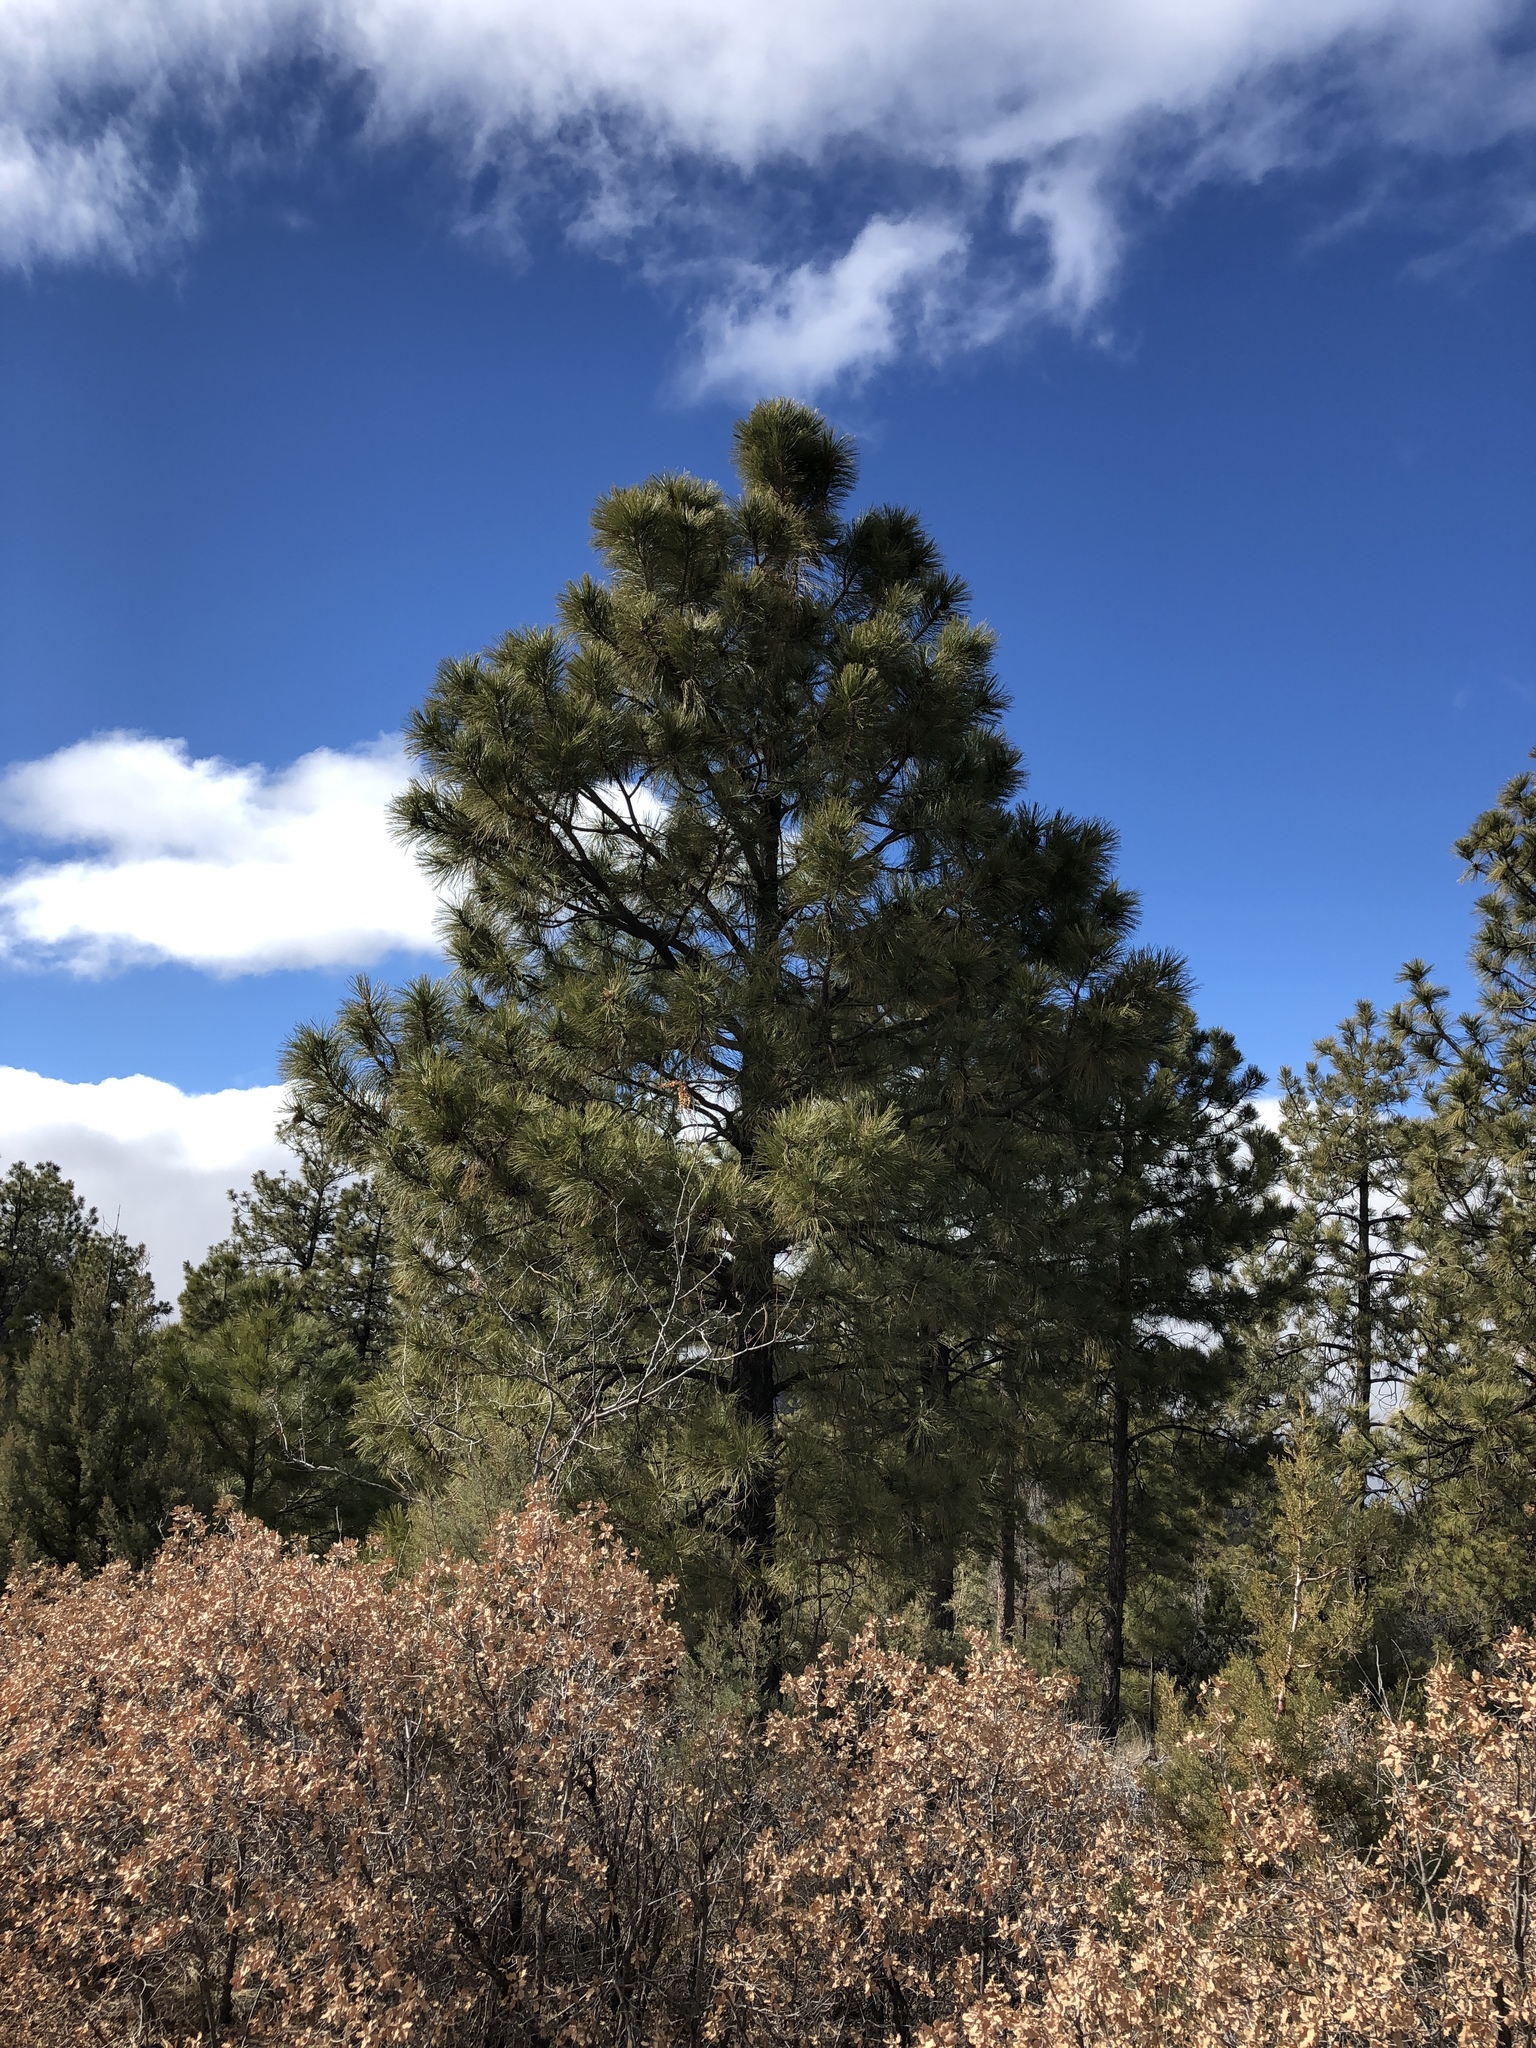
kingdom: Plantae
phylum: Tracheophyta
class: Pinopsida
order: Pinales
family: Pinaceae
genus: Pinus
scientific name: Pinus ponderosa
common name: Western yellow-pine
